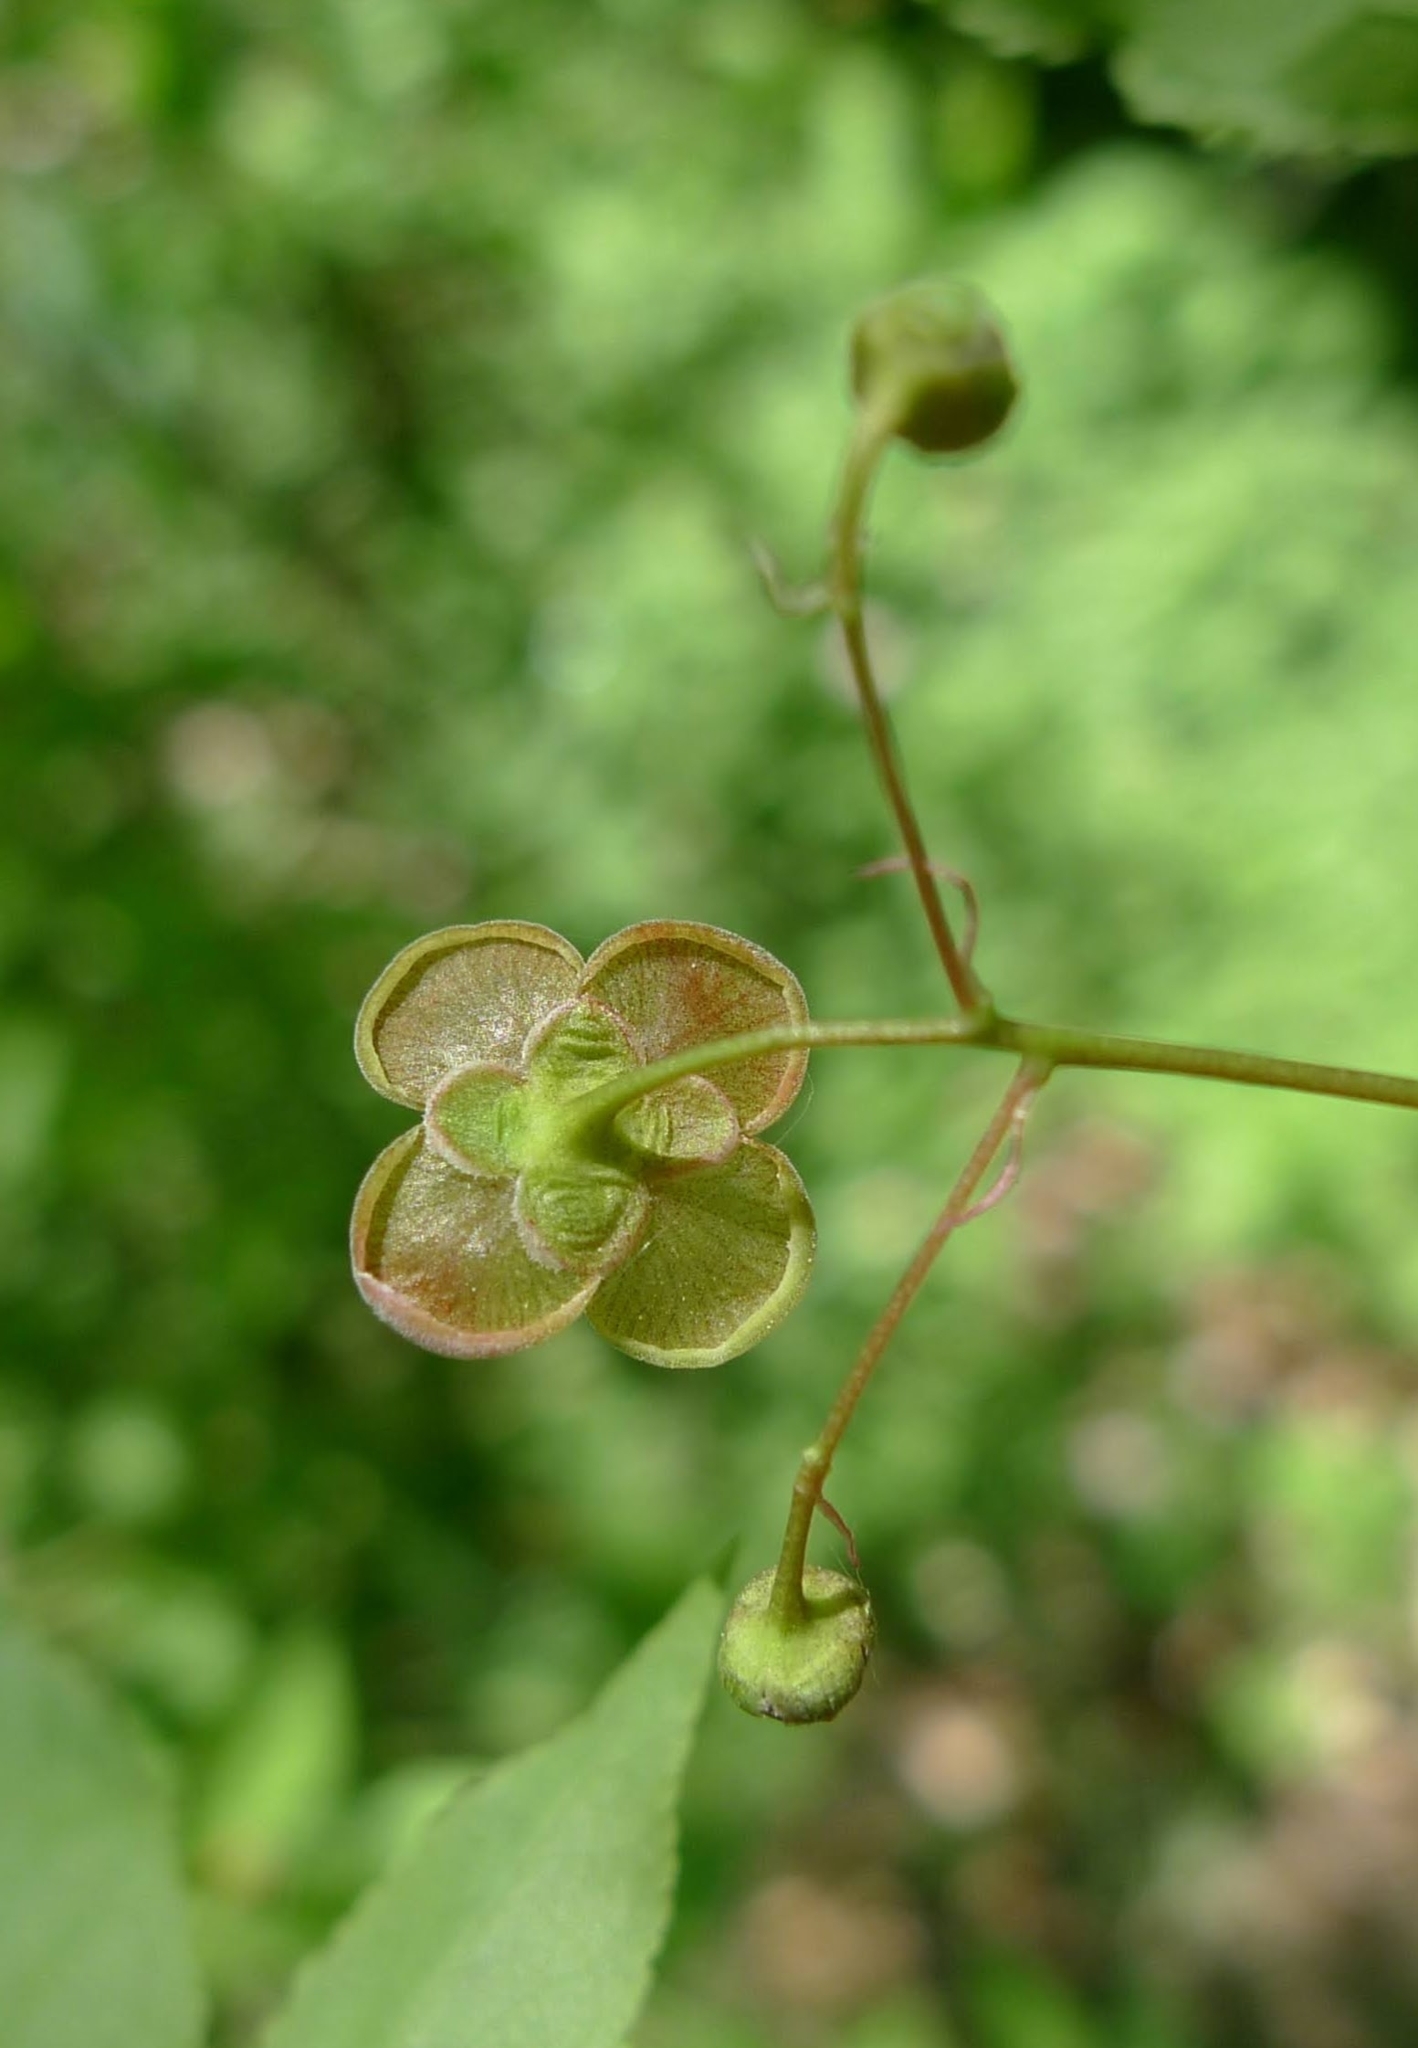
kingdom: Plantae
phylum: Tracheophyta
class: Magnoliopsida
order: Celastrales
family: Celastraceae
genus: Euonymus
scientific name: Euonymus verrucosus
